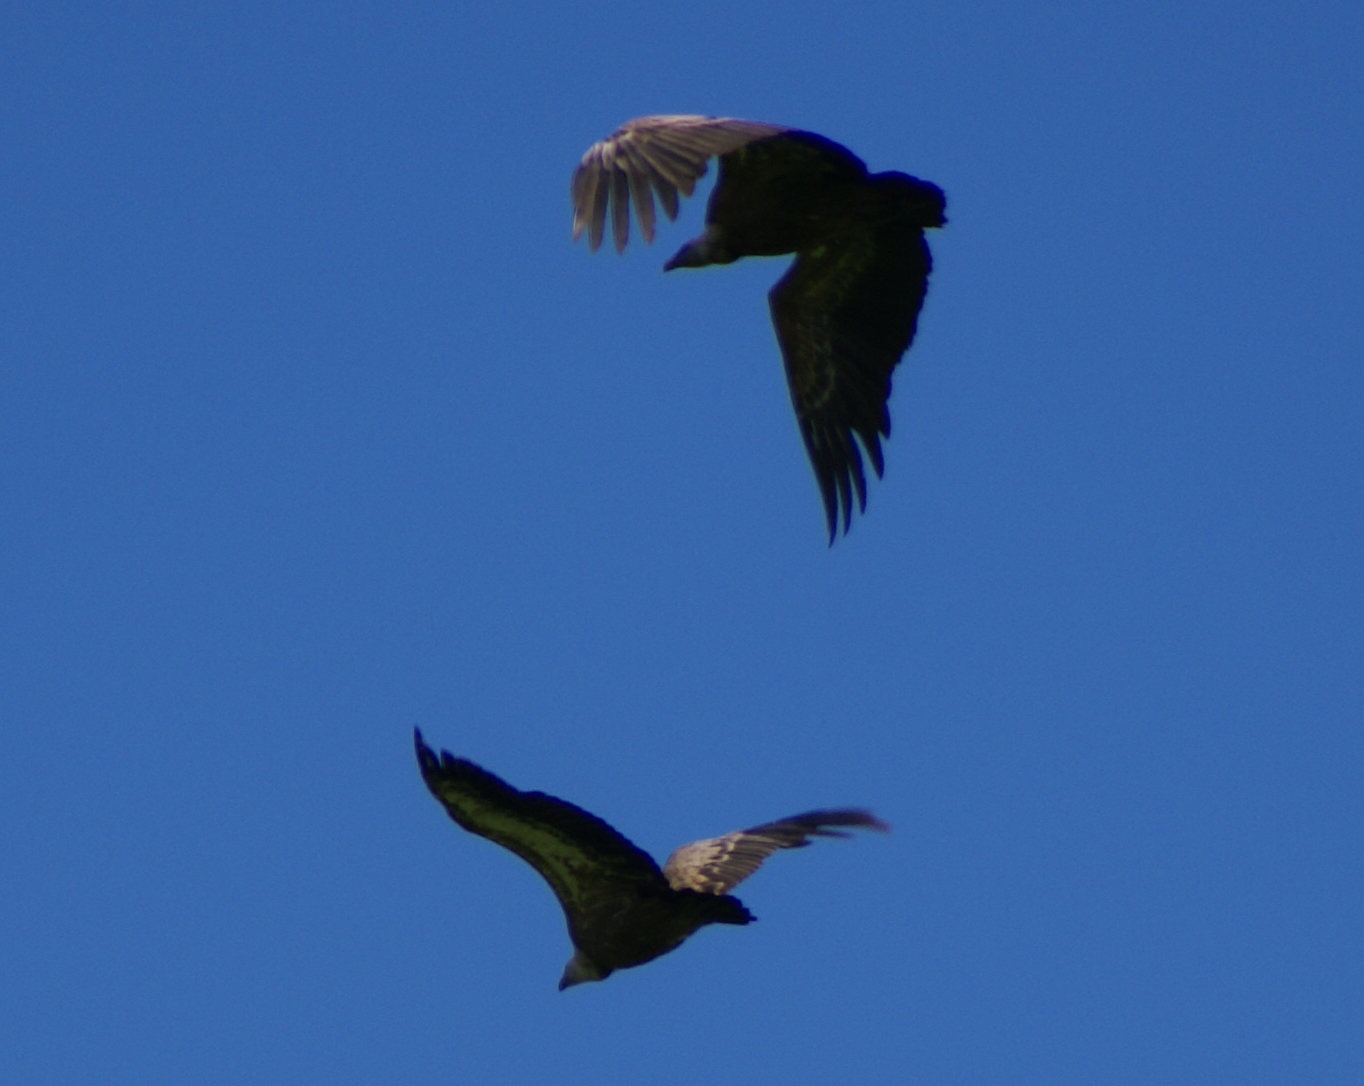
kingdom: Animalia
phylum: Chordata
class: Aves
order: Accipitriformes
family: Accipitridae
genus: Gyps
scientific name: Gyps fulvus
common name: Griffon vulture
